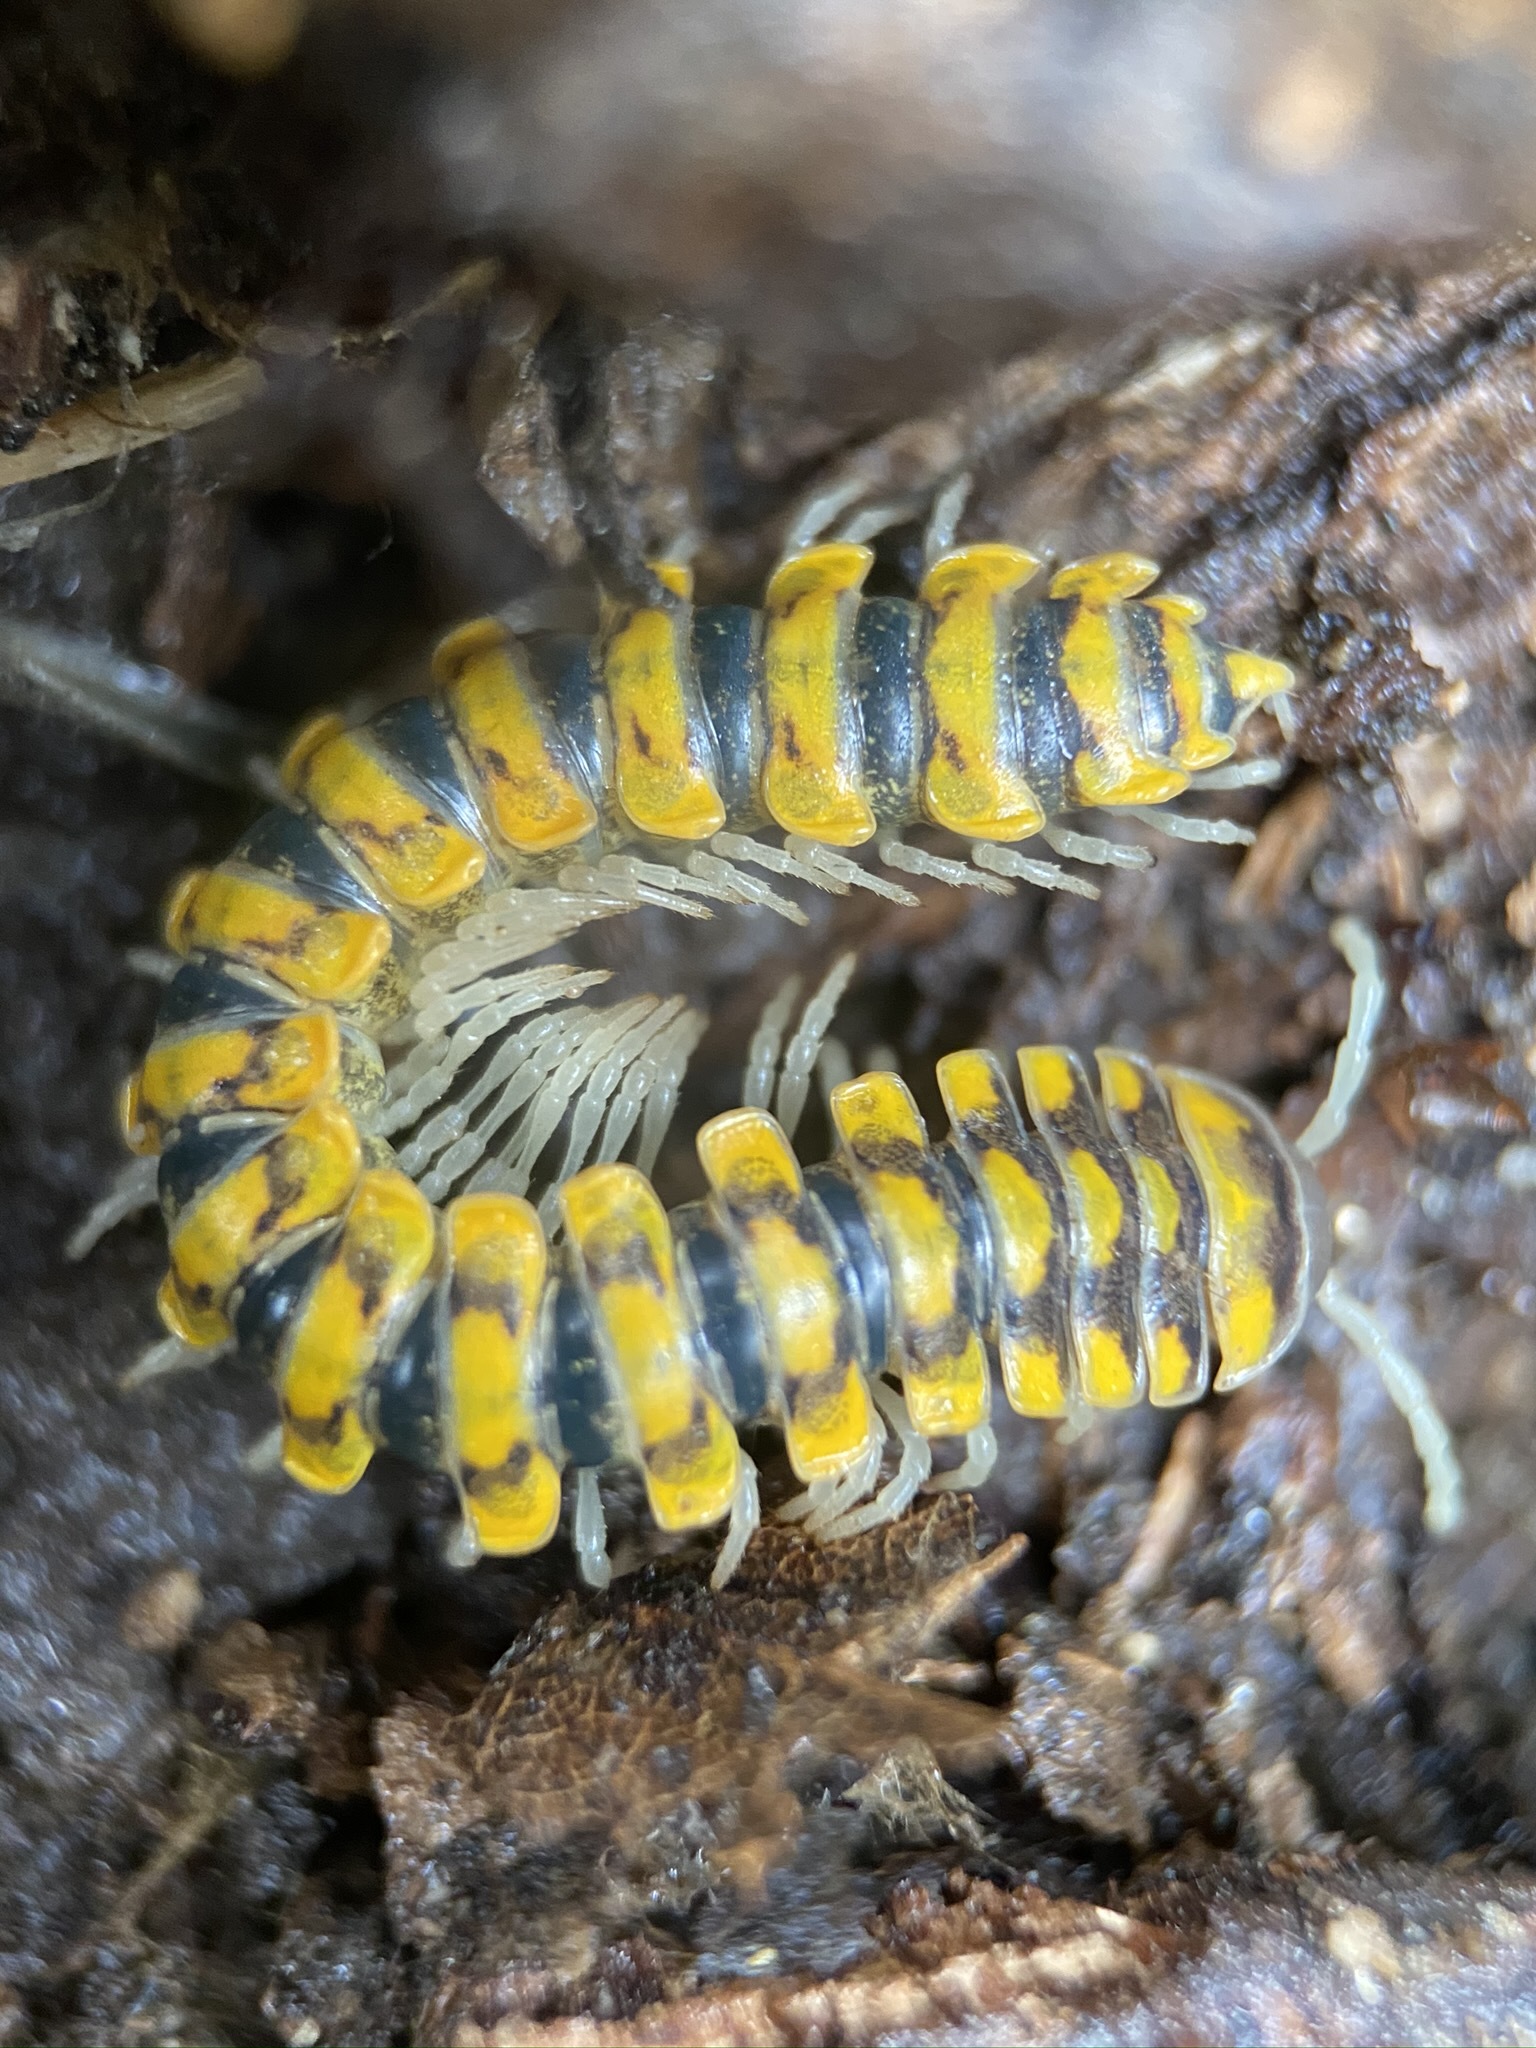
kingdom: Animalia
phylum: Arthropoda
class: Diplopoda
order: Polydesmida
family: Xystodesmidae
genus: Sigmocheir
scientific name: Sigmocheir furcata
